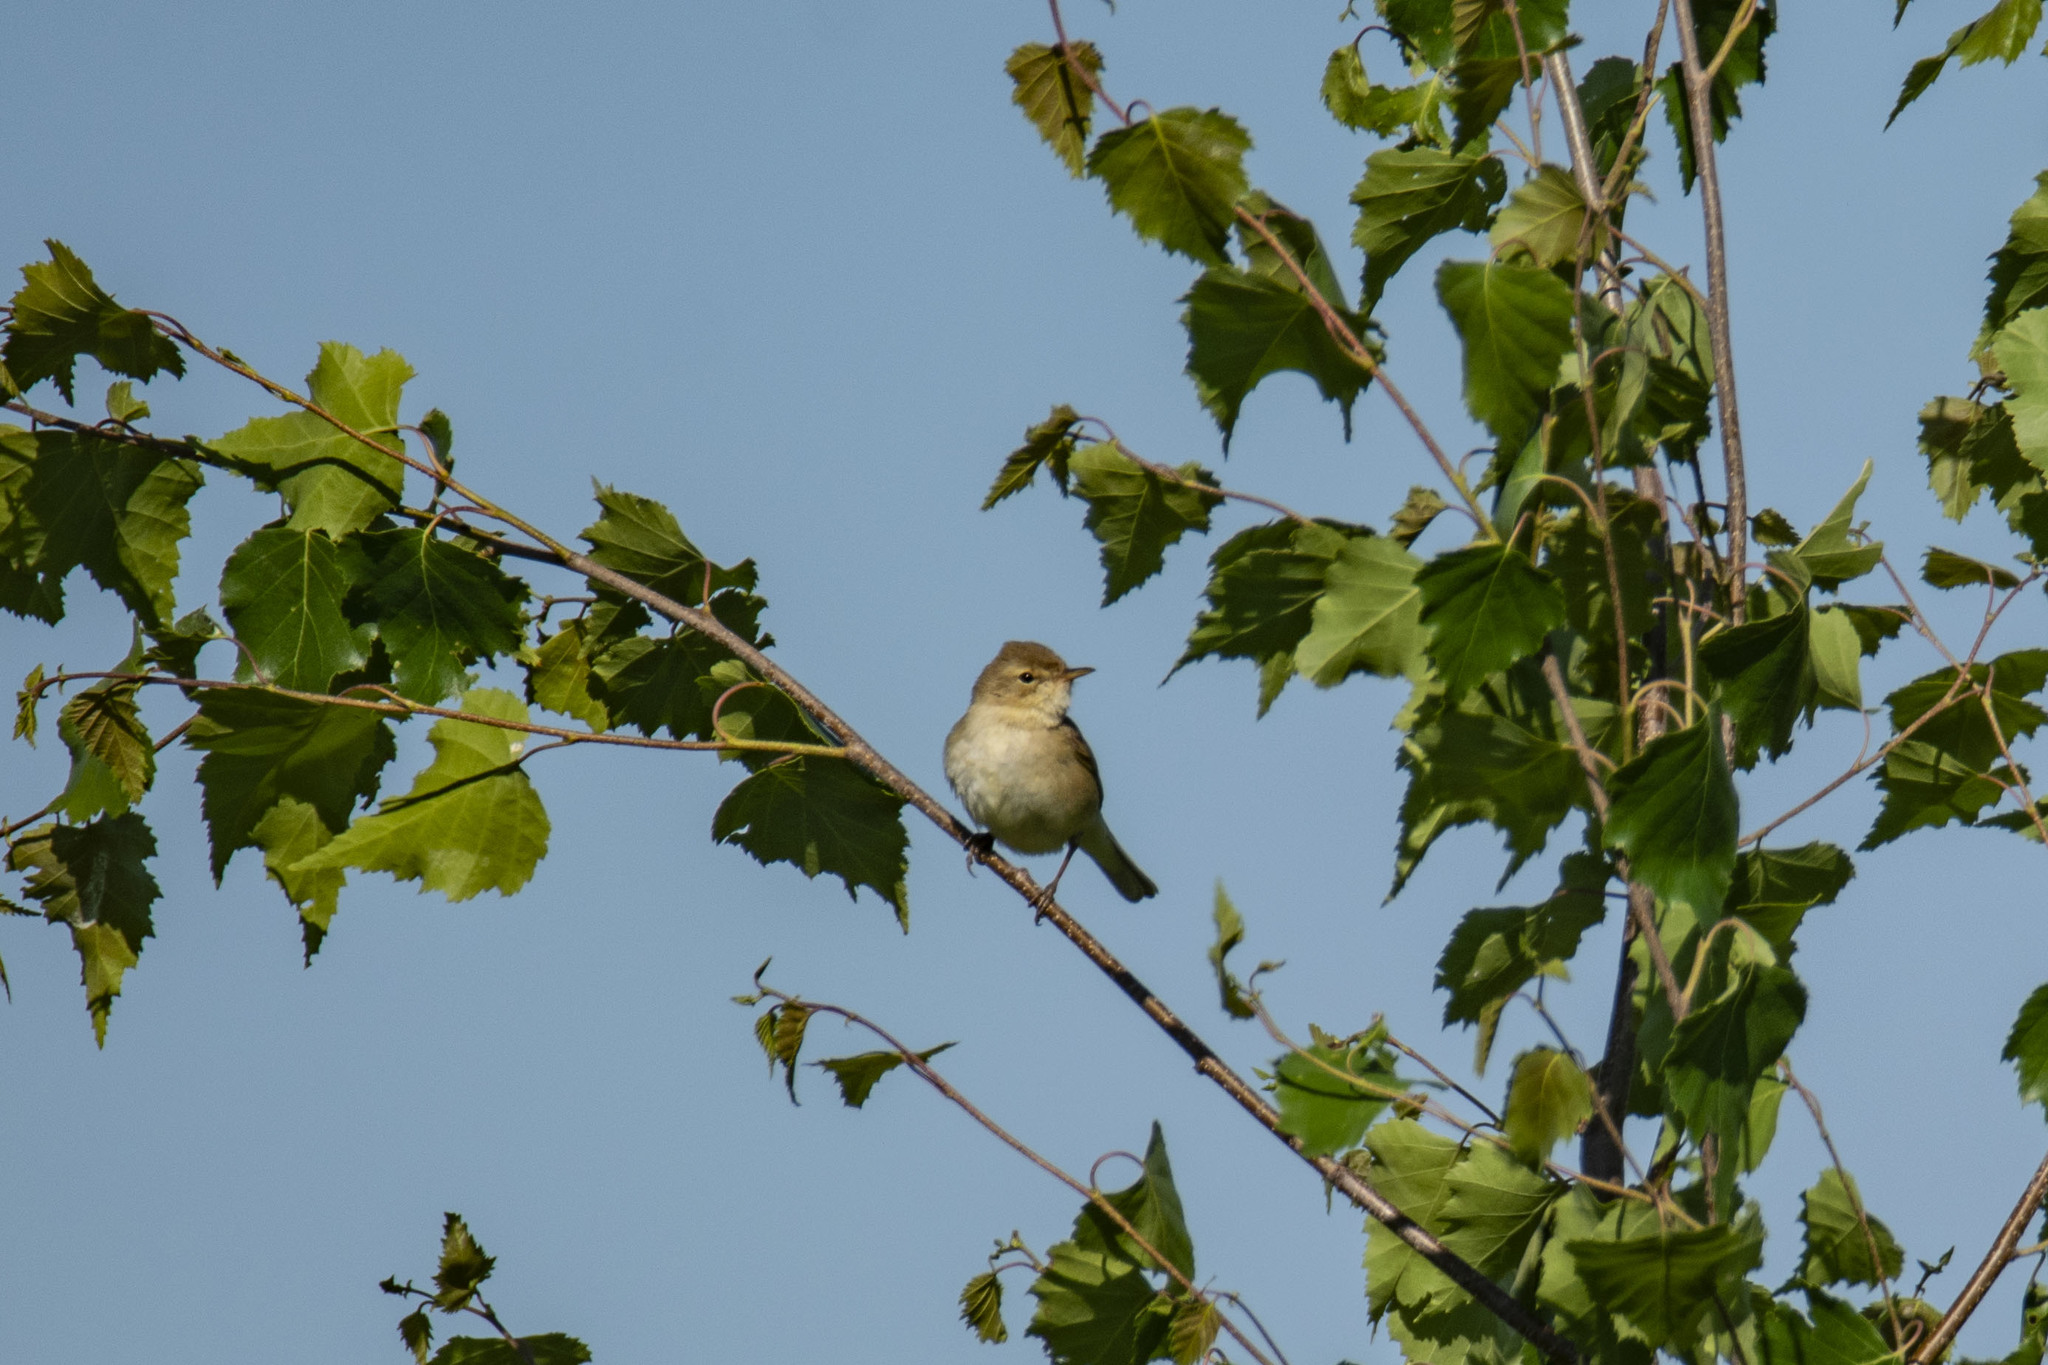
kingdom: Animalia
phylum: Chordata
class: Aves
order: Passeriformes
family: Acrocephalidae
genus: Iduna
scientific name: Iduna caligata
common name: Booted warbler
